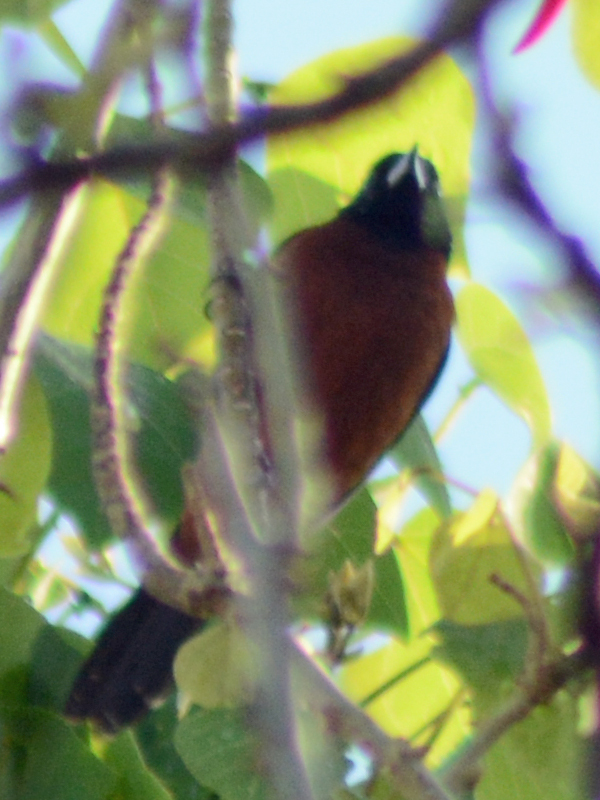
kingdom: Animalia
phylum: Chordata
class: Aves
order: Passeriformes
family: Icteridae
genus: Icterus
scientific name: Icterus spurius
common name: Orchard oriole
